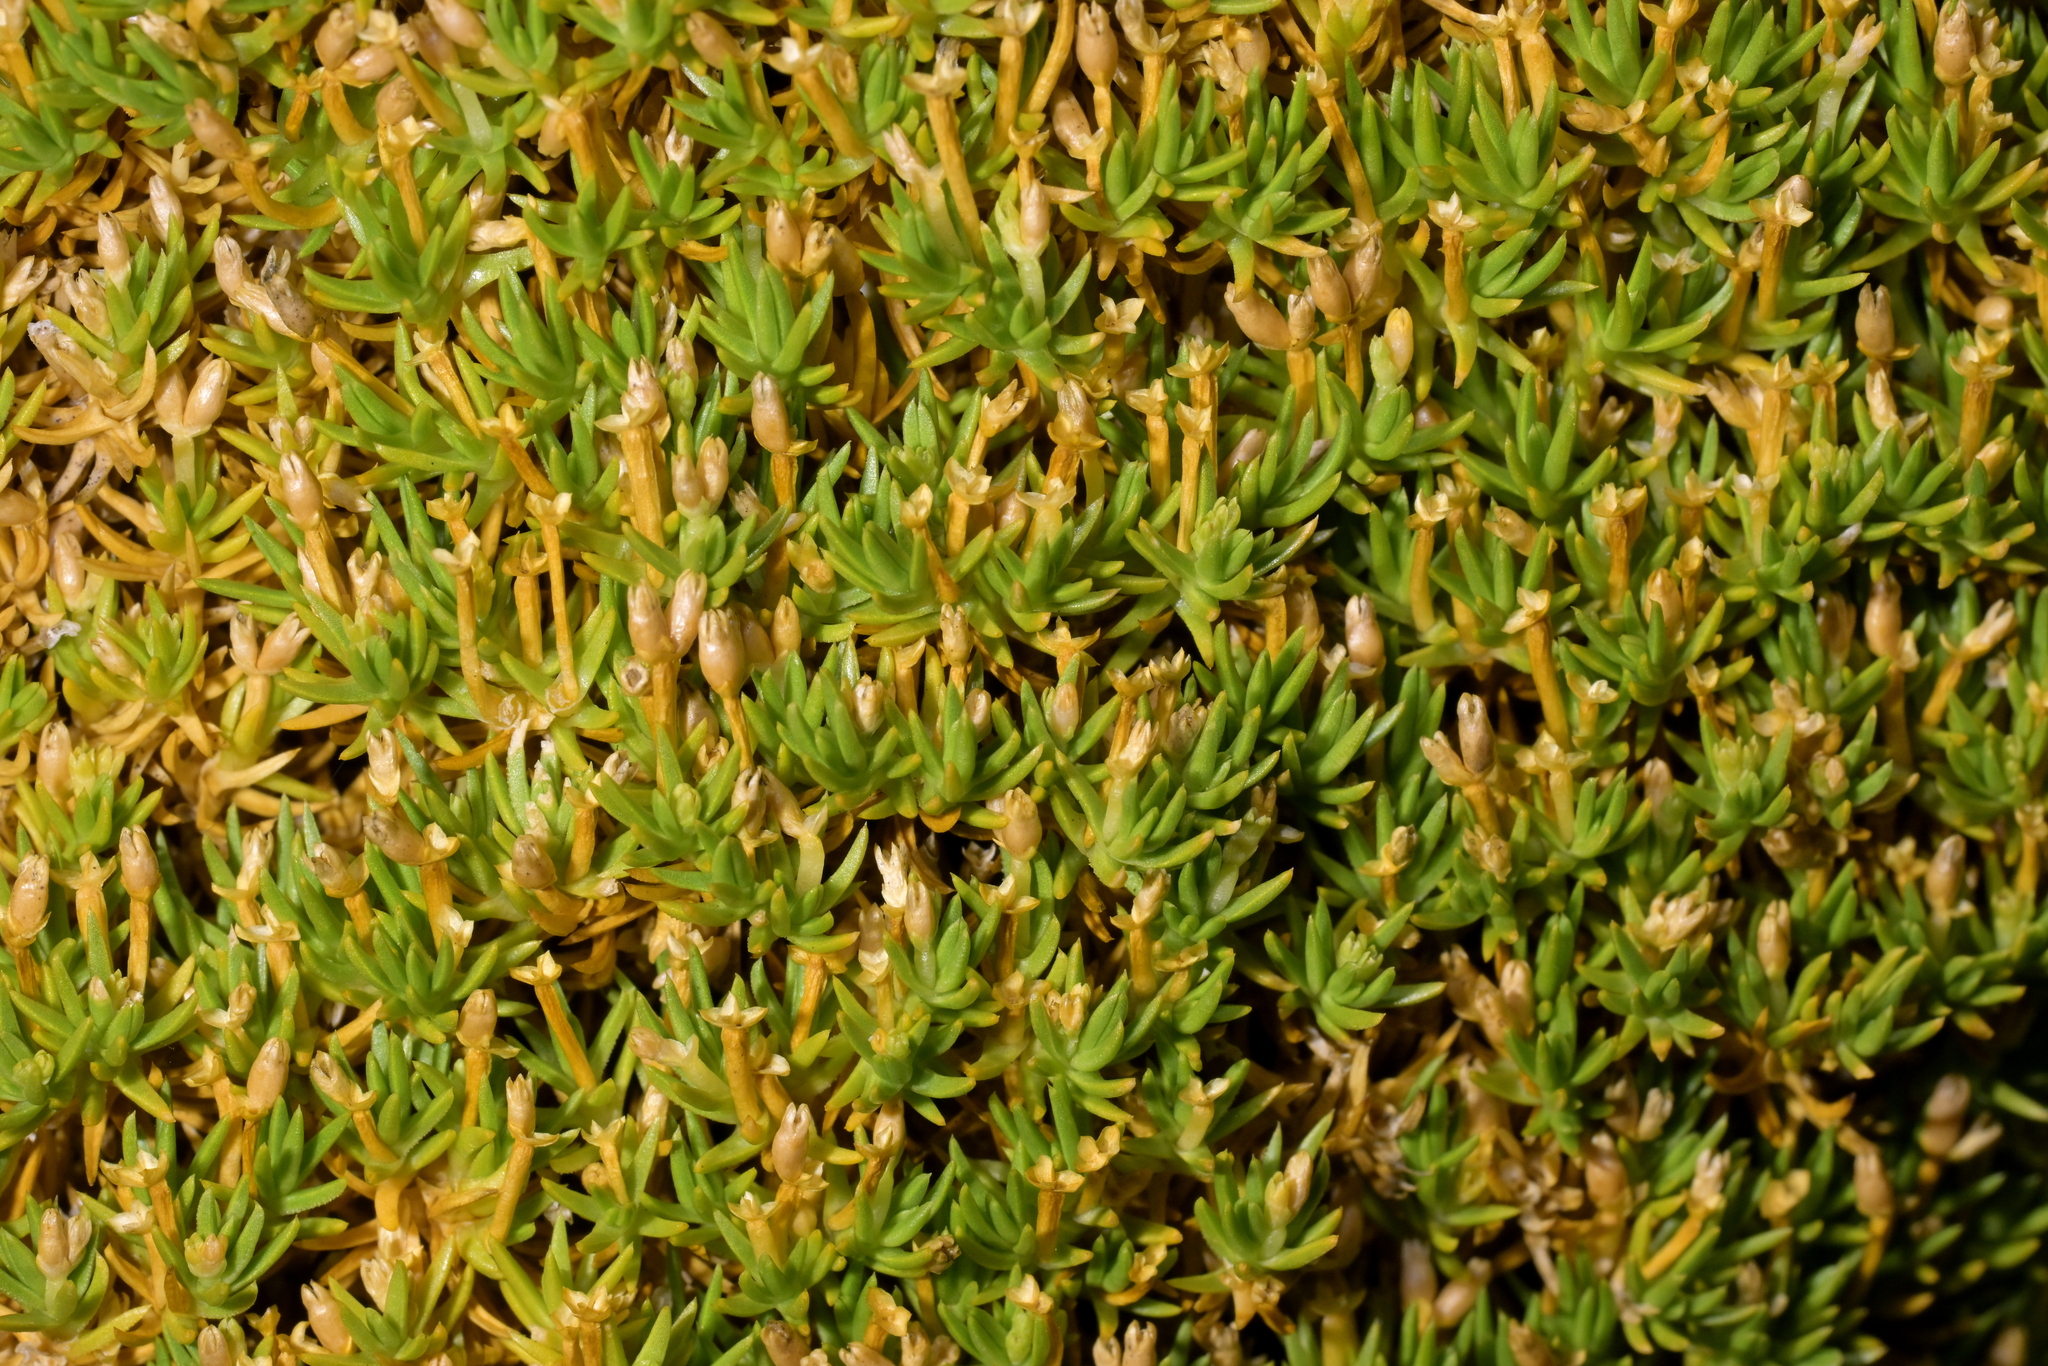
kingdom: Plantae
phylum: Tracheophyta
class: Magnoliopsida
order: Caryophyllales
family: Caryophyllaceae
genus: Scleranthus
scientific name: Scleranthus biflorus
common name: Two-flower knawel
